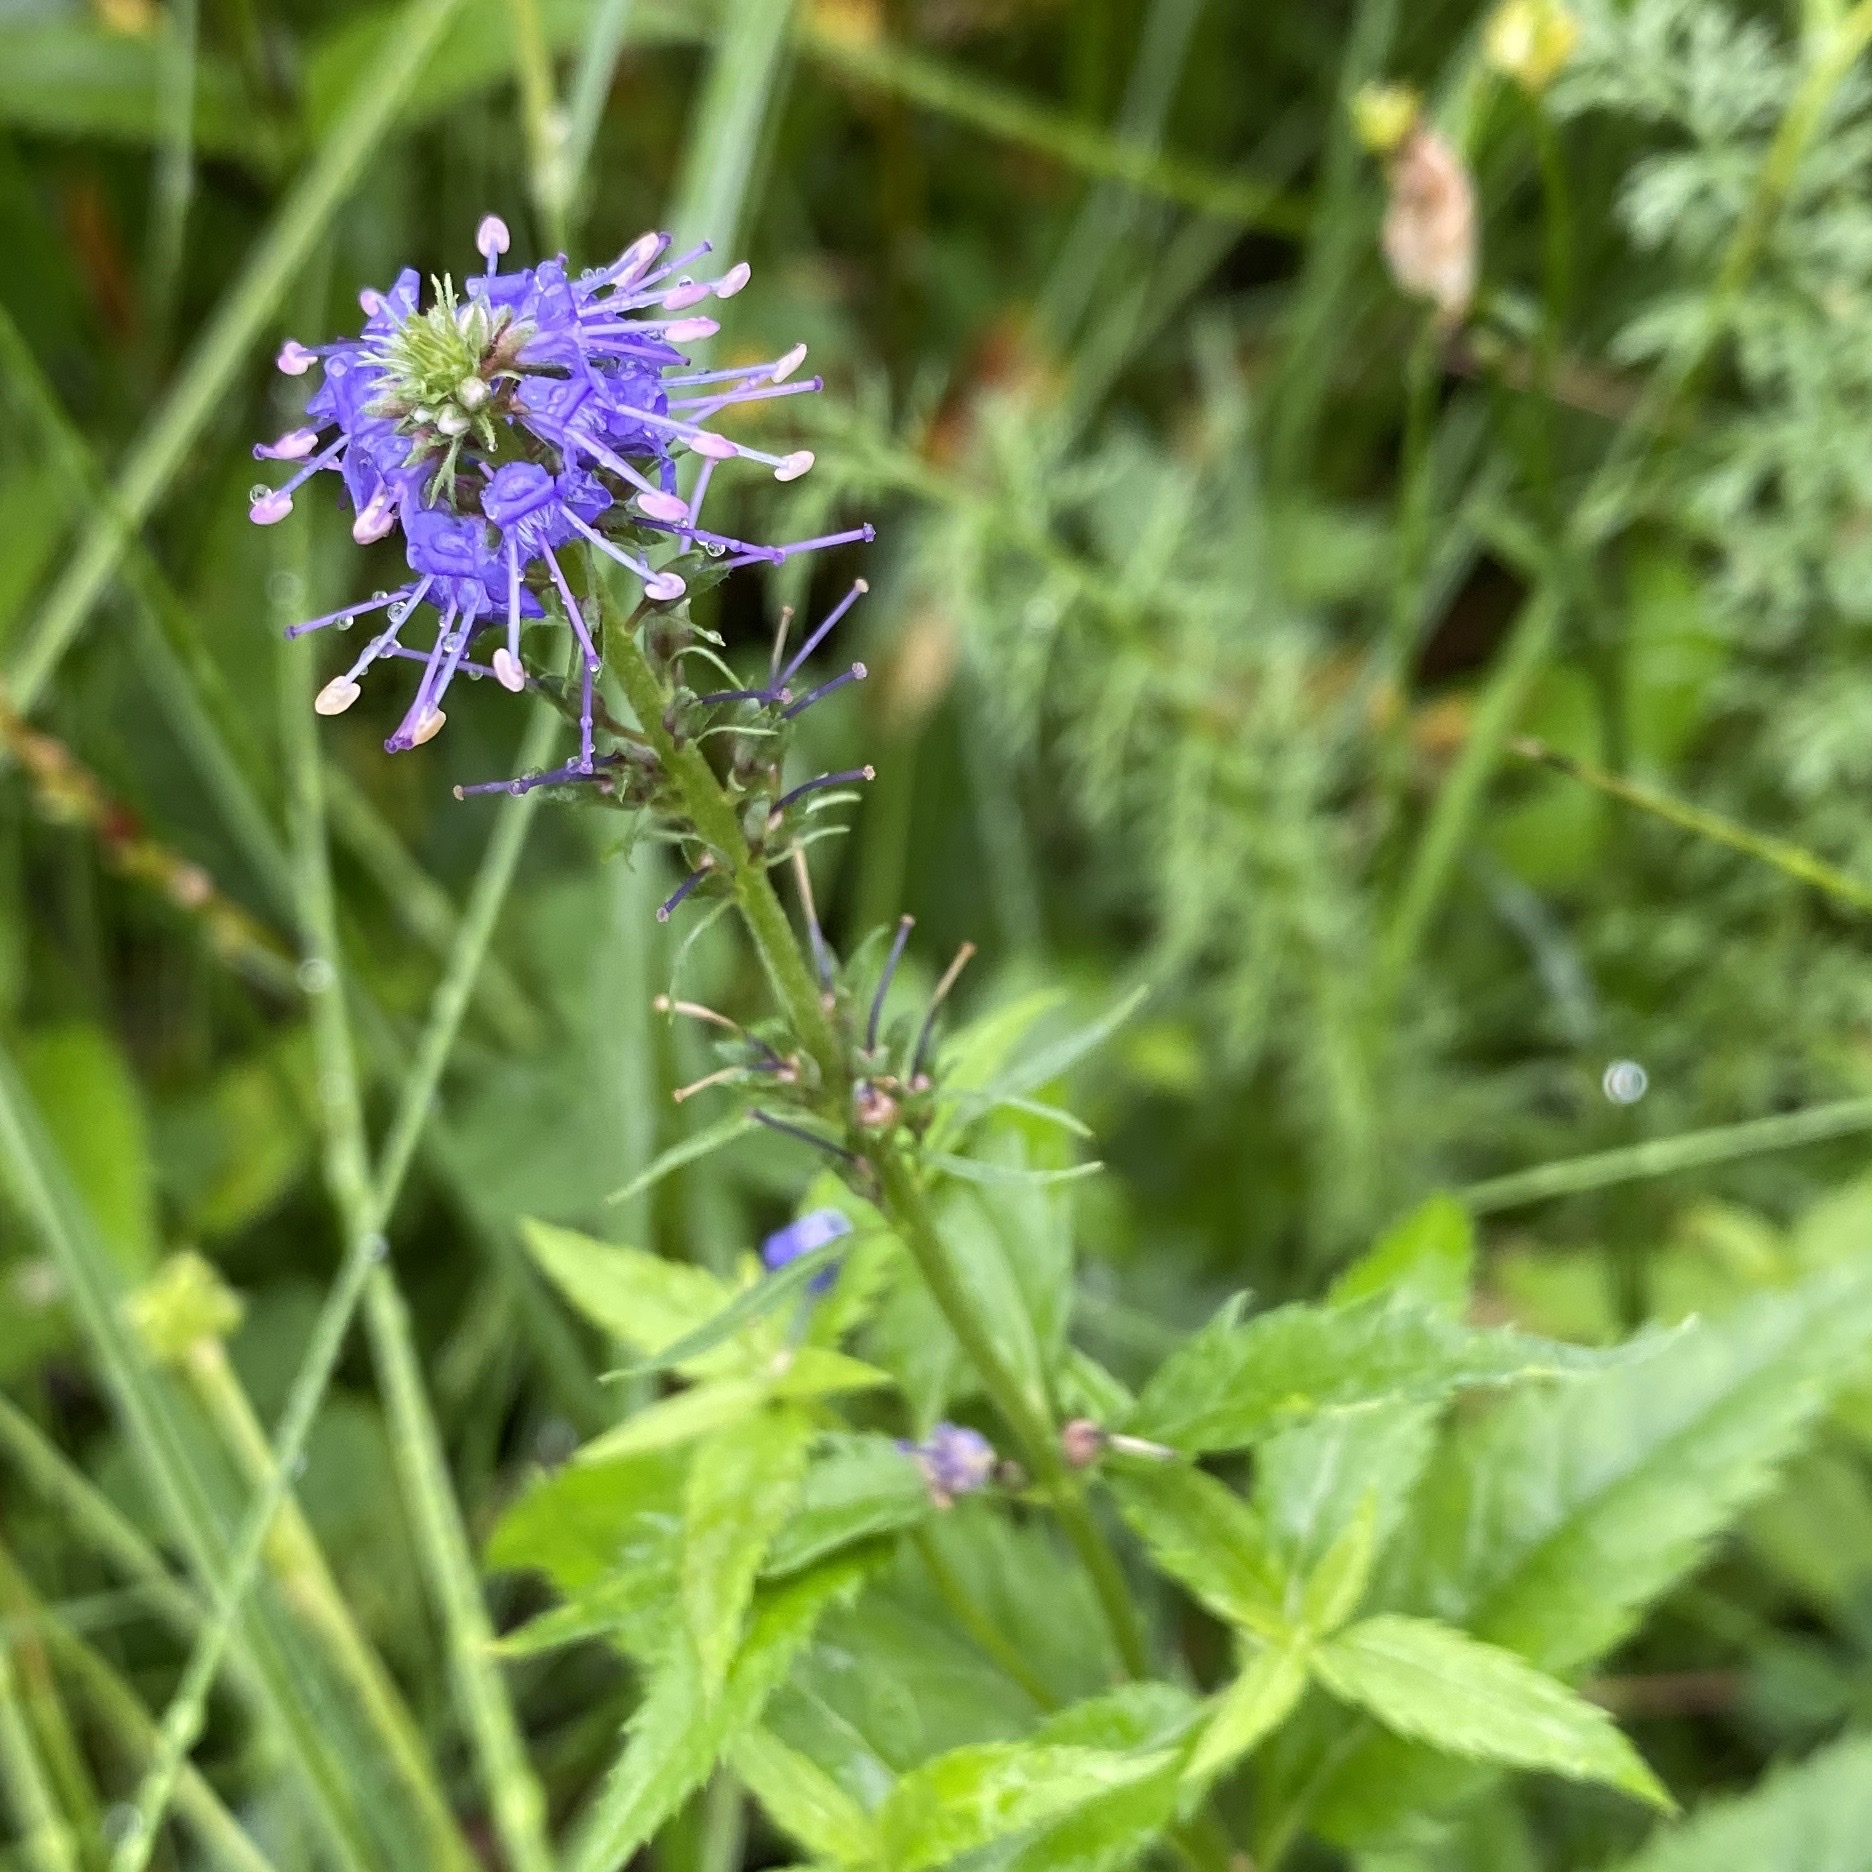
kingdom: Plantae
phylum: Tracheophyta
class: Magnoliopsida
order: Lamiales
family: Plantaginaceae
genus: Veronica
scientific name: Veronica longifolia
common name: Garden speedwell
